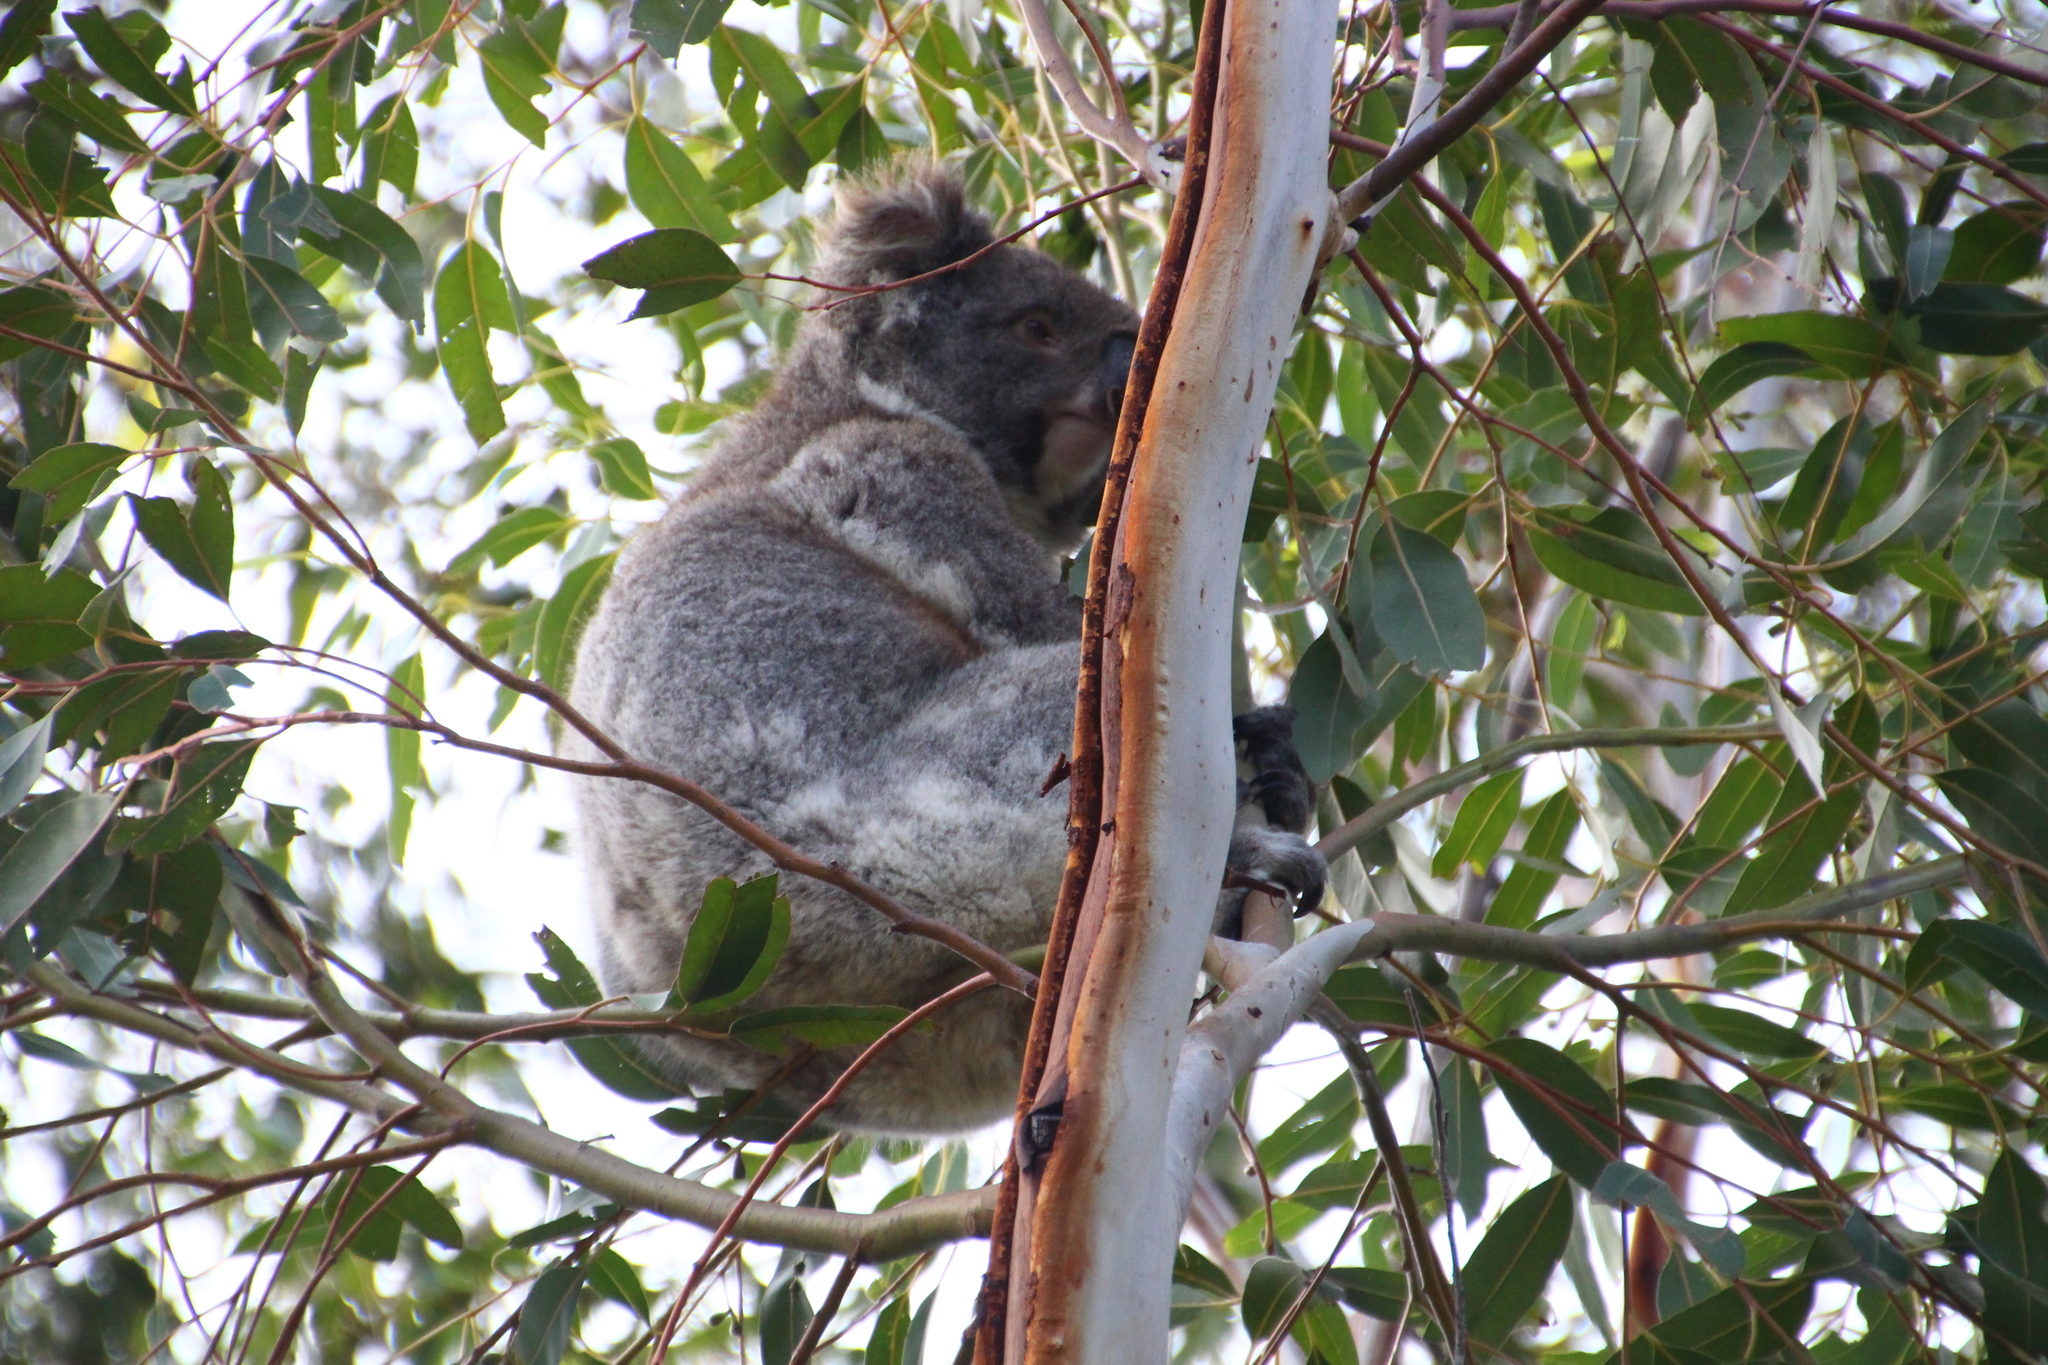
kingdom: Animalia
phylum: Chordata
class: Mammalia
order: Diprotodontia
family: Phascolarctidae
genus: Phascolarctos
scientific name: Phascolarctos cinereus
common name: Koala
